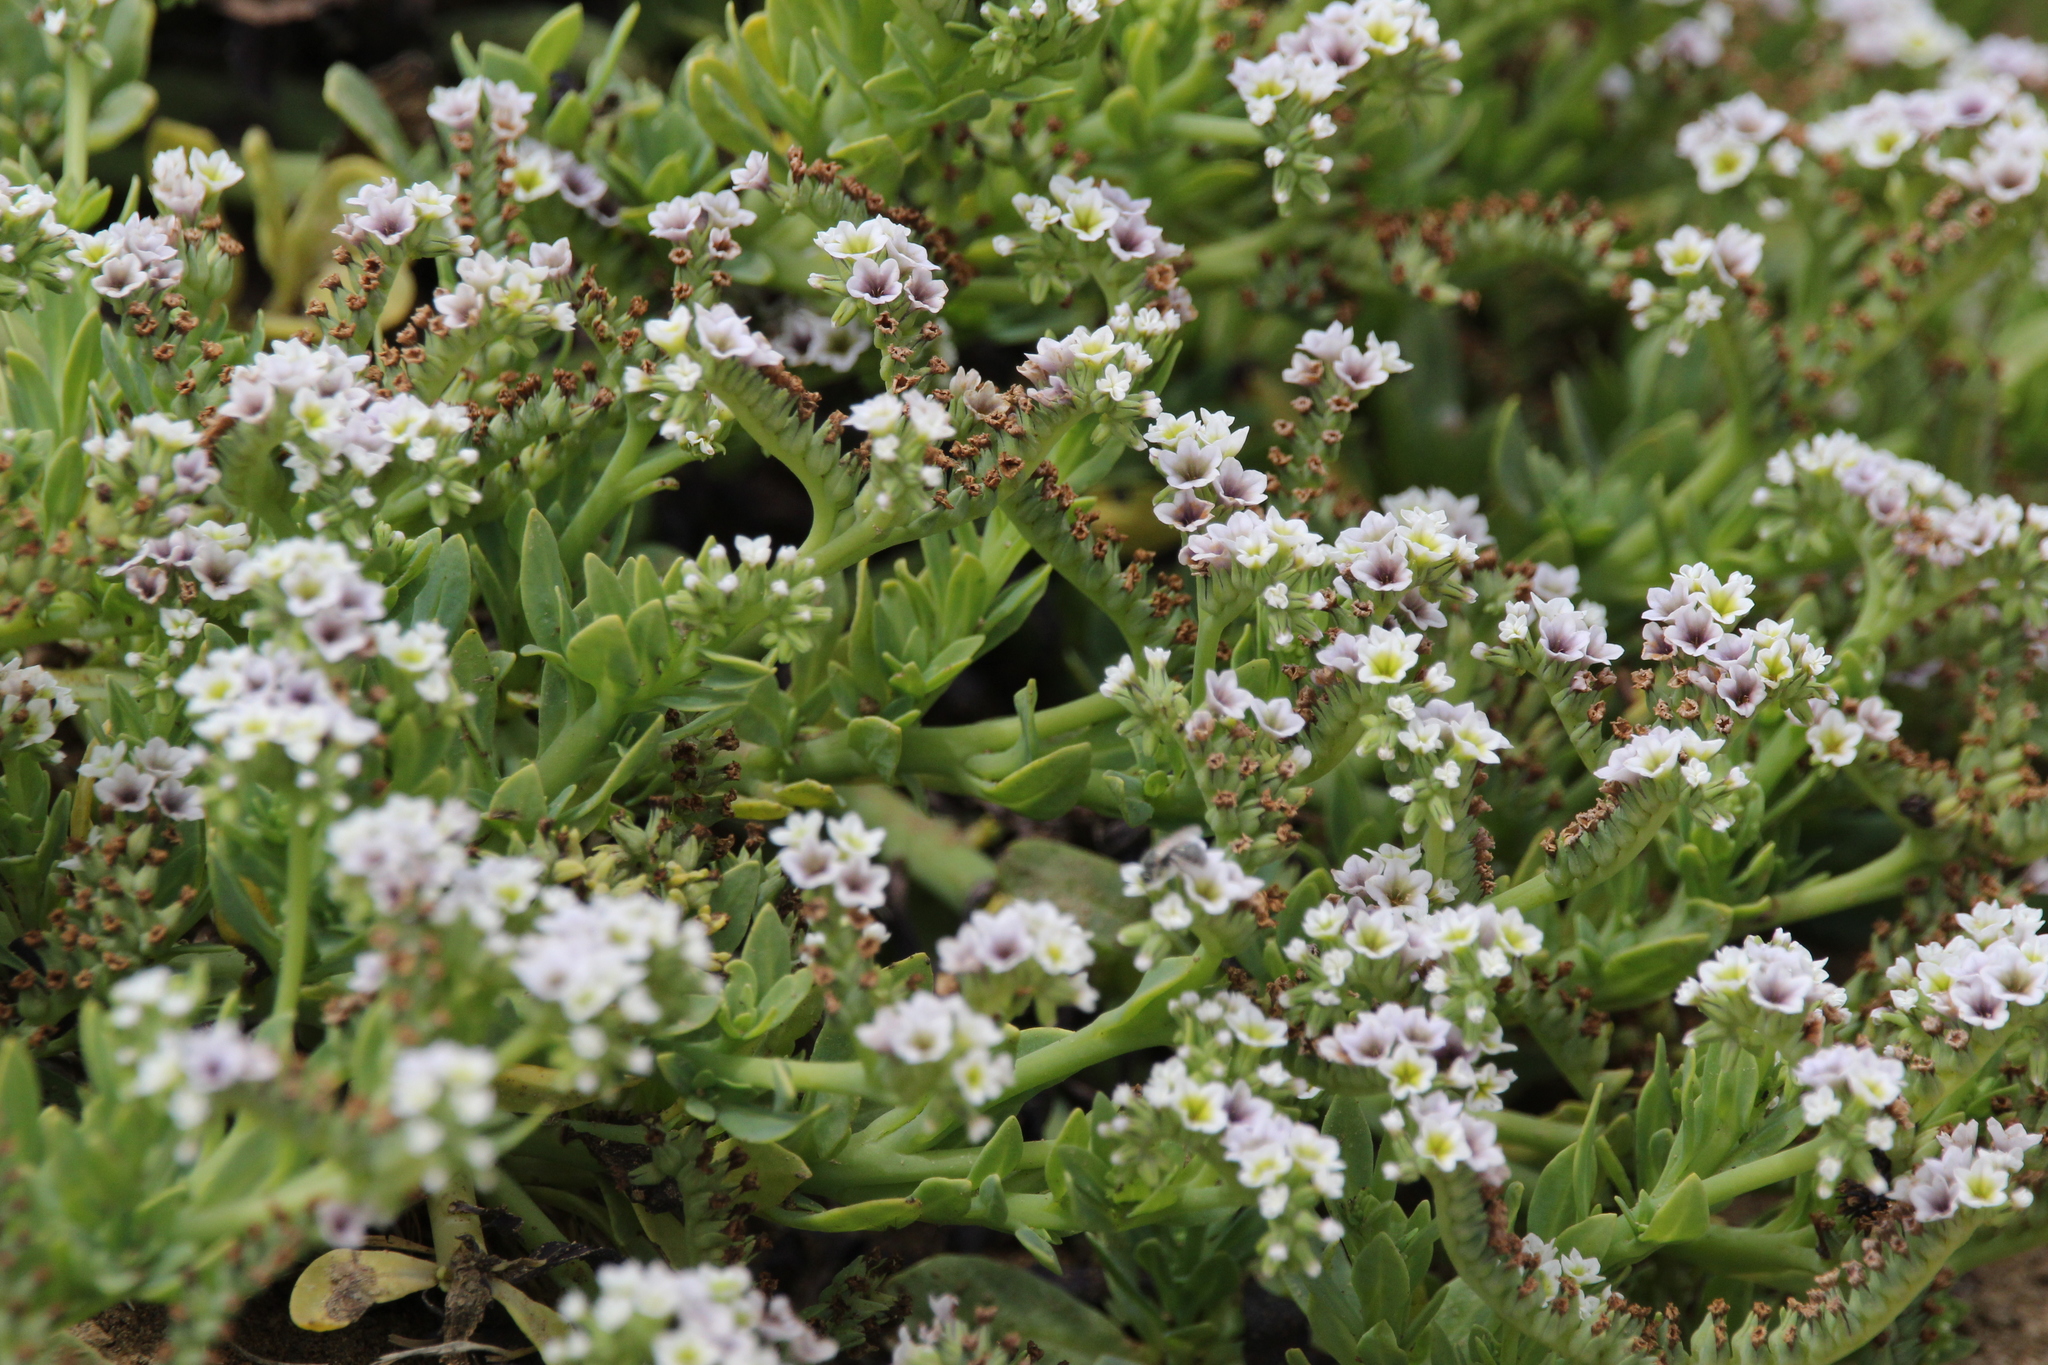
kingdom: Plantae
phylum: Tracheophyta
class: Magnoliopsida
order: Boraginales
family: Heliotropiaceae
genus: Heliotropium
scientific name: Heliotropium curassavicum
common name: Seaside heliotrope
